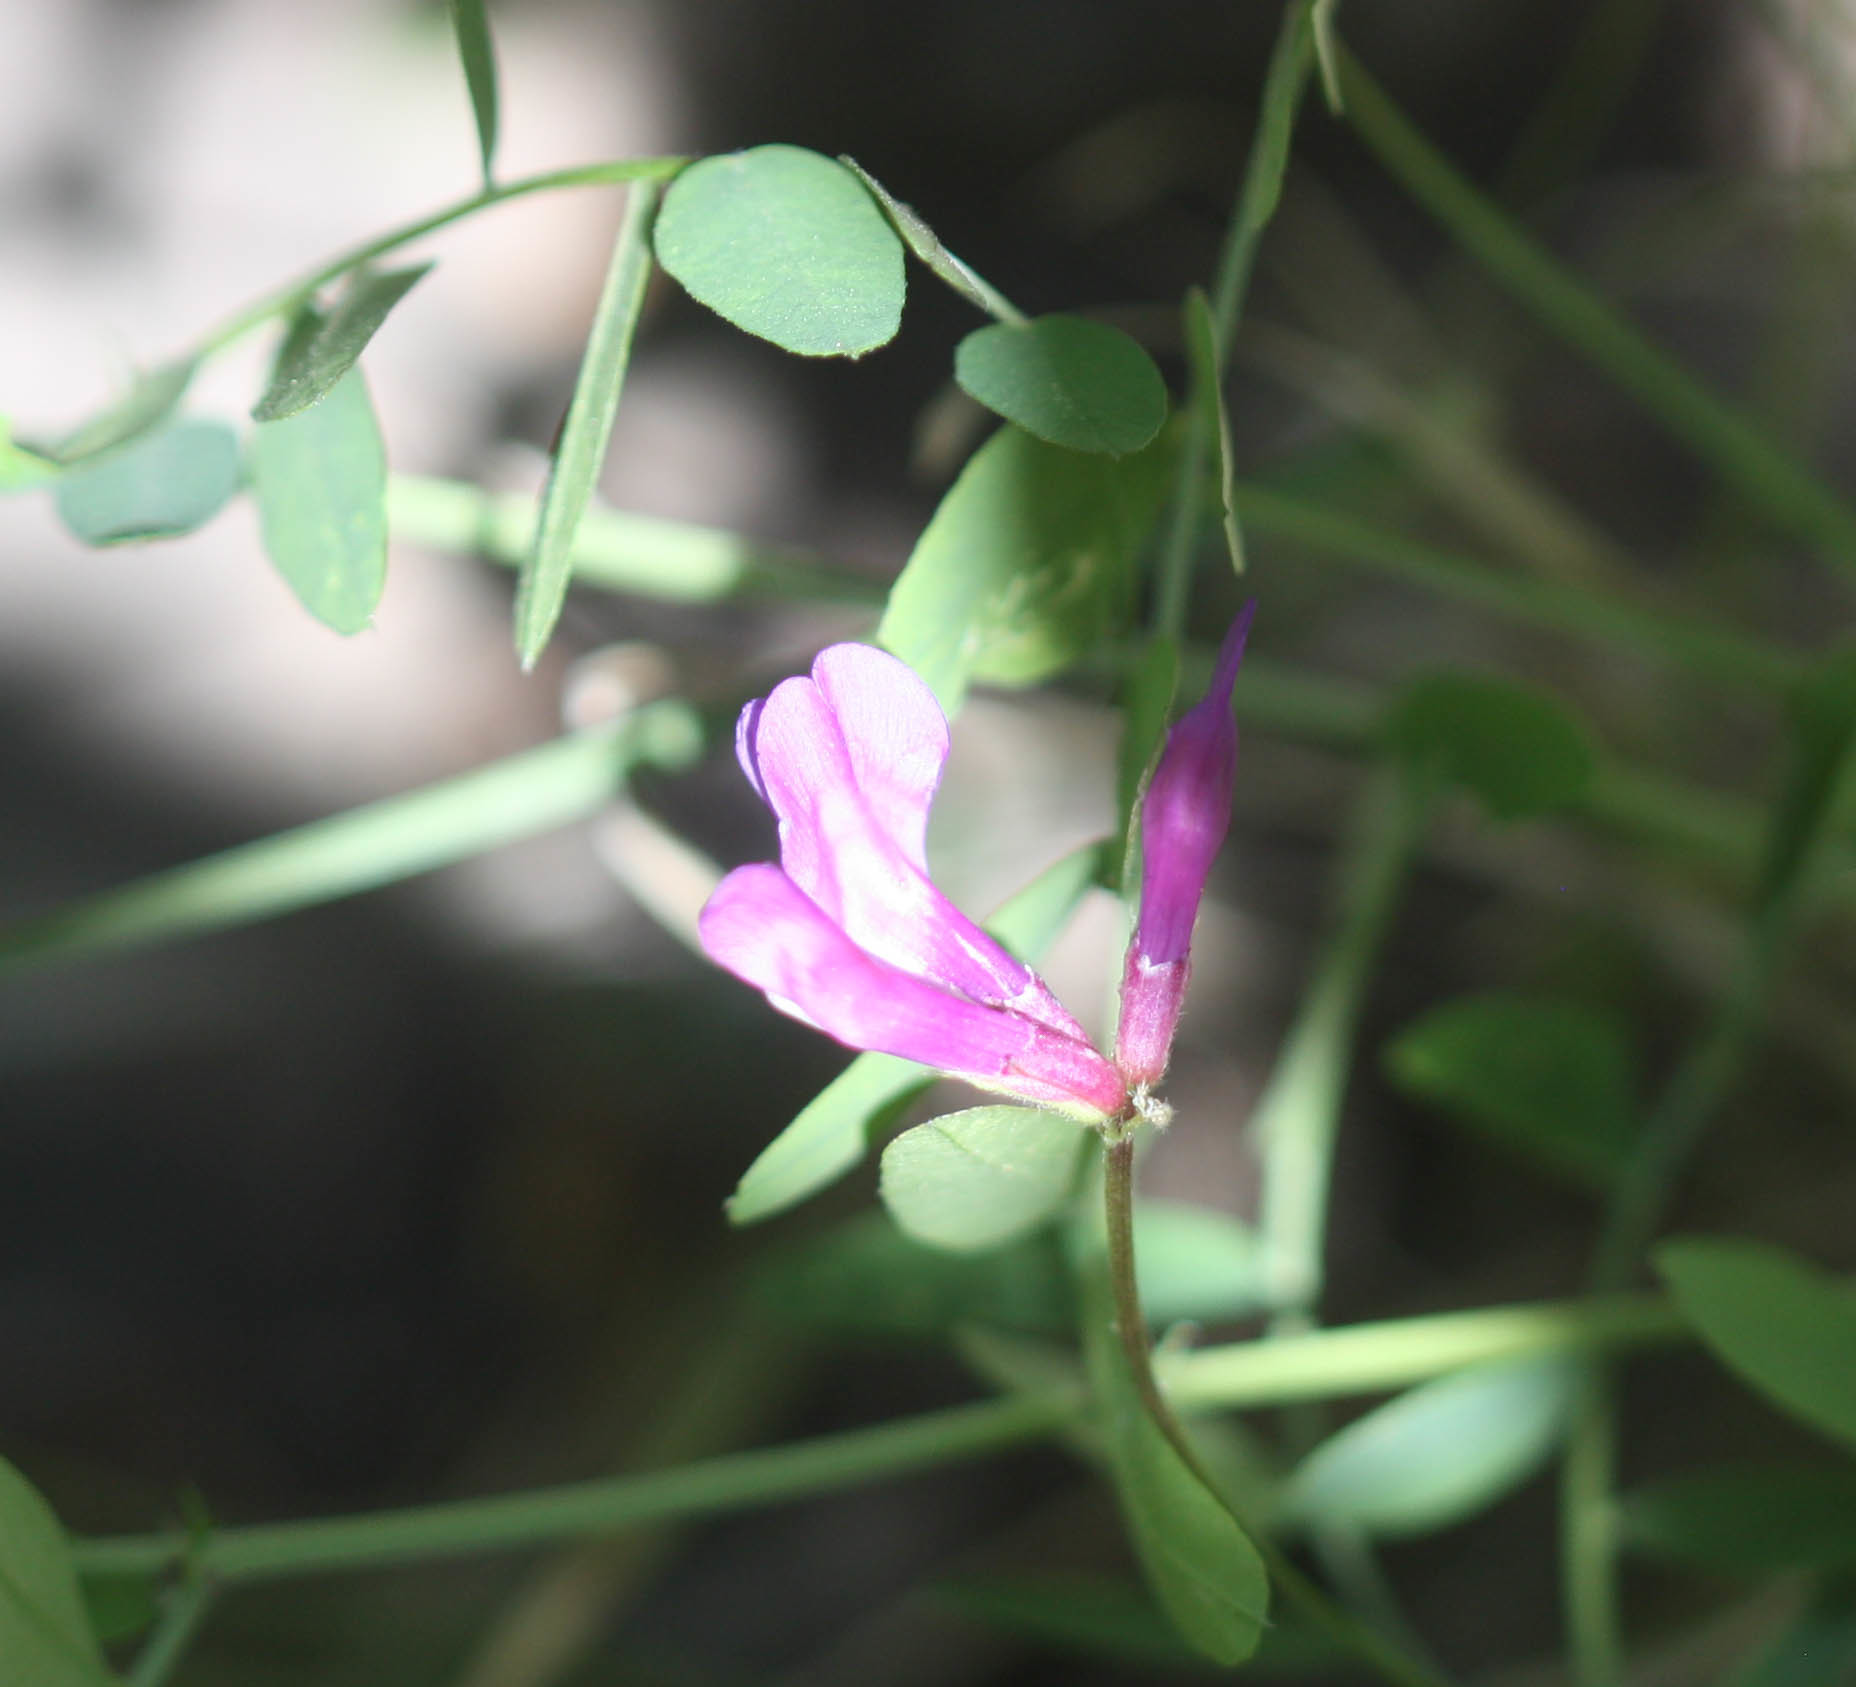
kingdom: Plantae
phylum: Tracheophyta
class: Magnoliopsida
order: Fabales
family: Fabaceae
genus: Vicia
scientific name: Vicia americana
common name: American vetch
